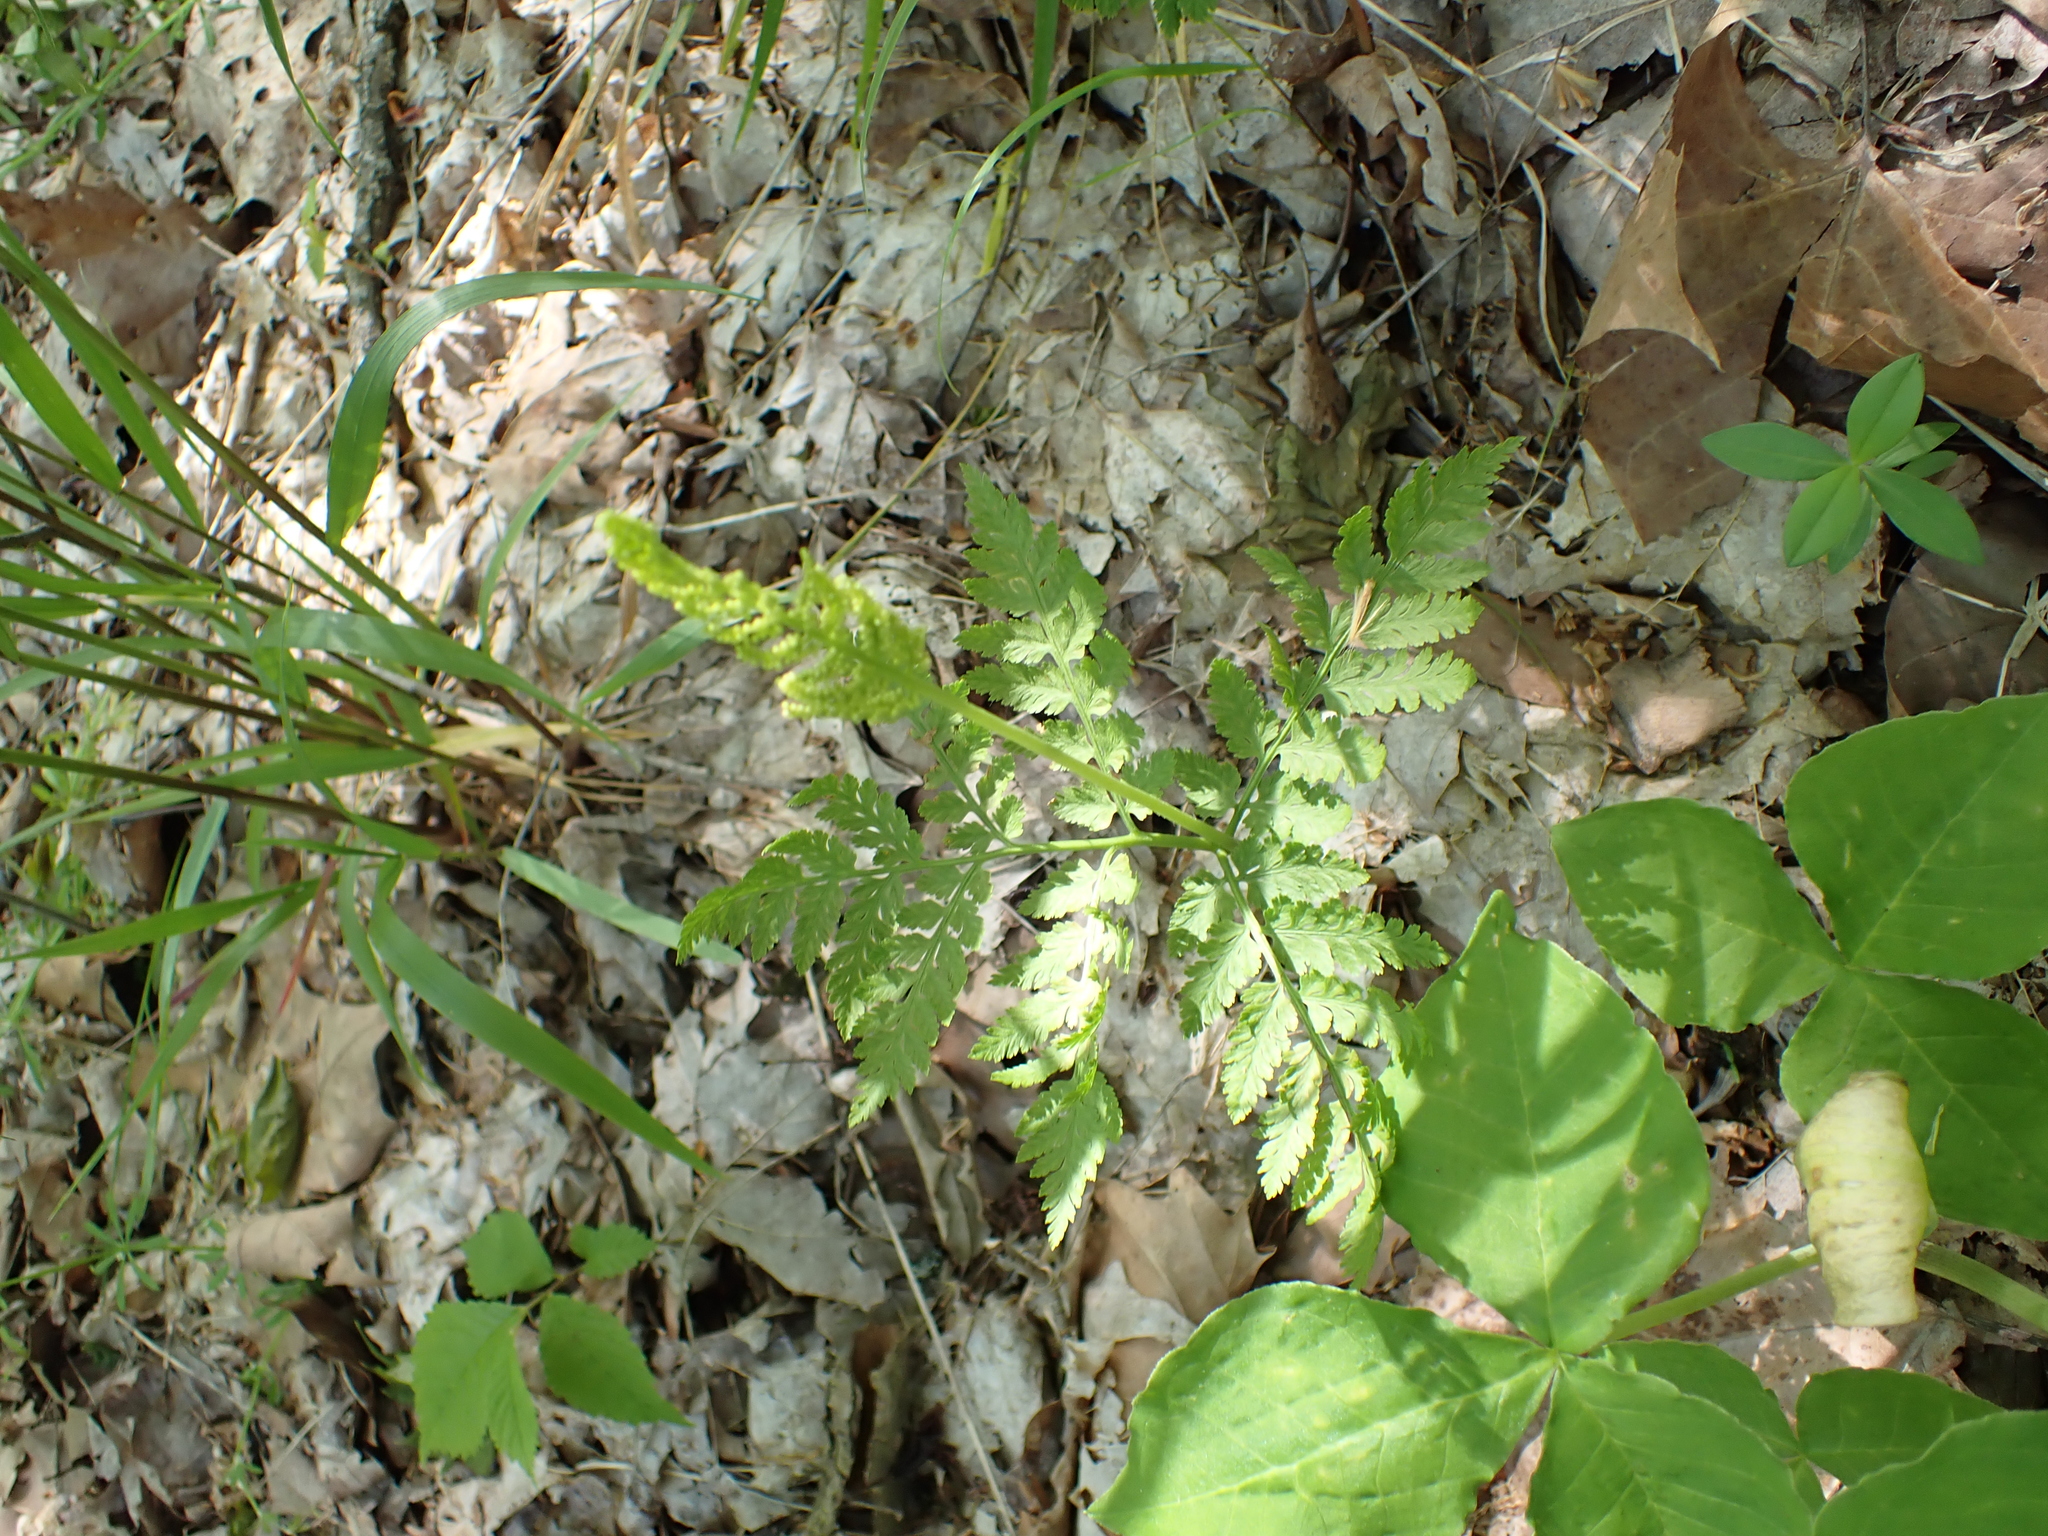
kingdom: Plantae
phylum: Tracheophyta
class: Polypodiopsida
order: Ophioglossales
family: Ophioglossaceae
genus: Botrypus
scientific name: Botrypus virginianus
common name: Common grapefern
